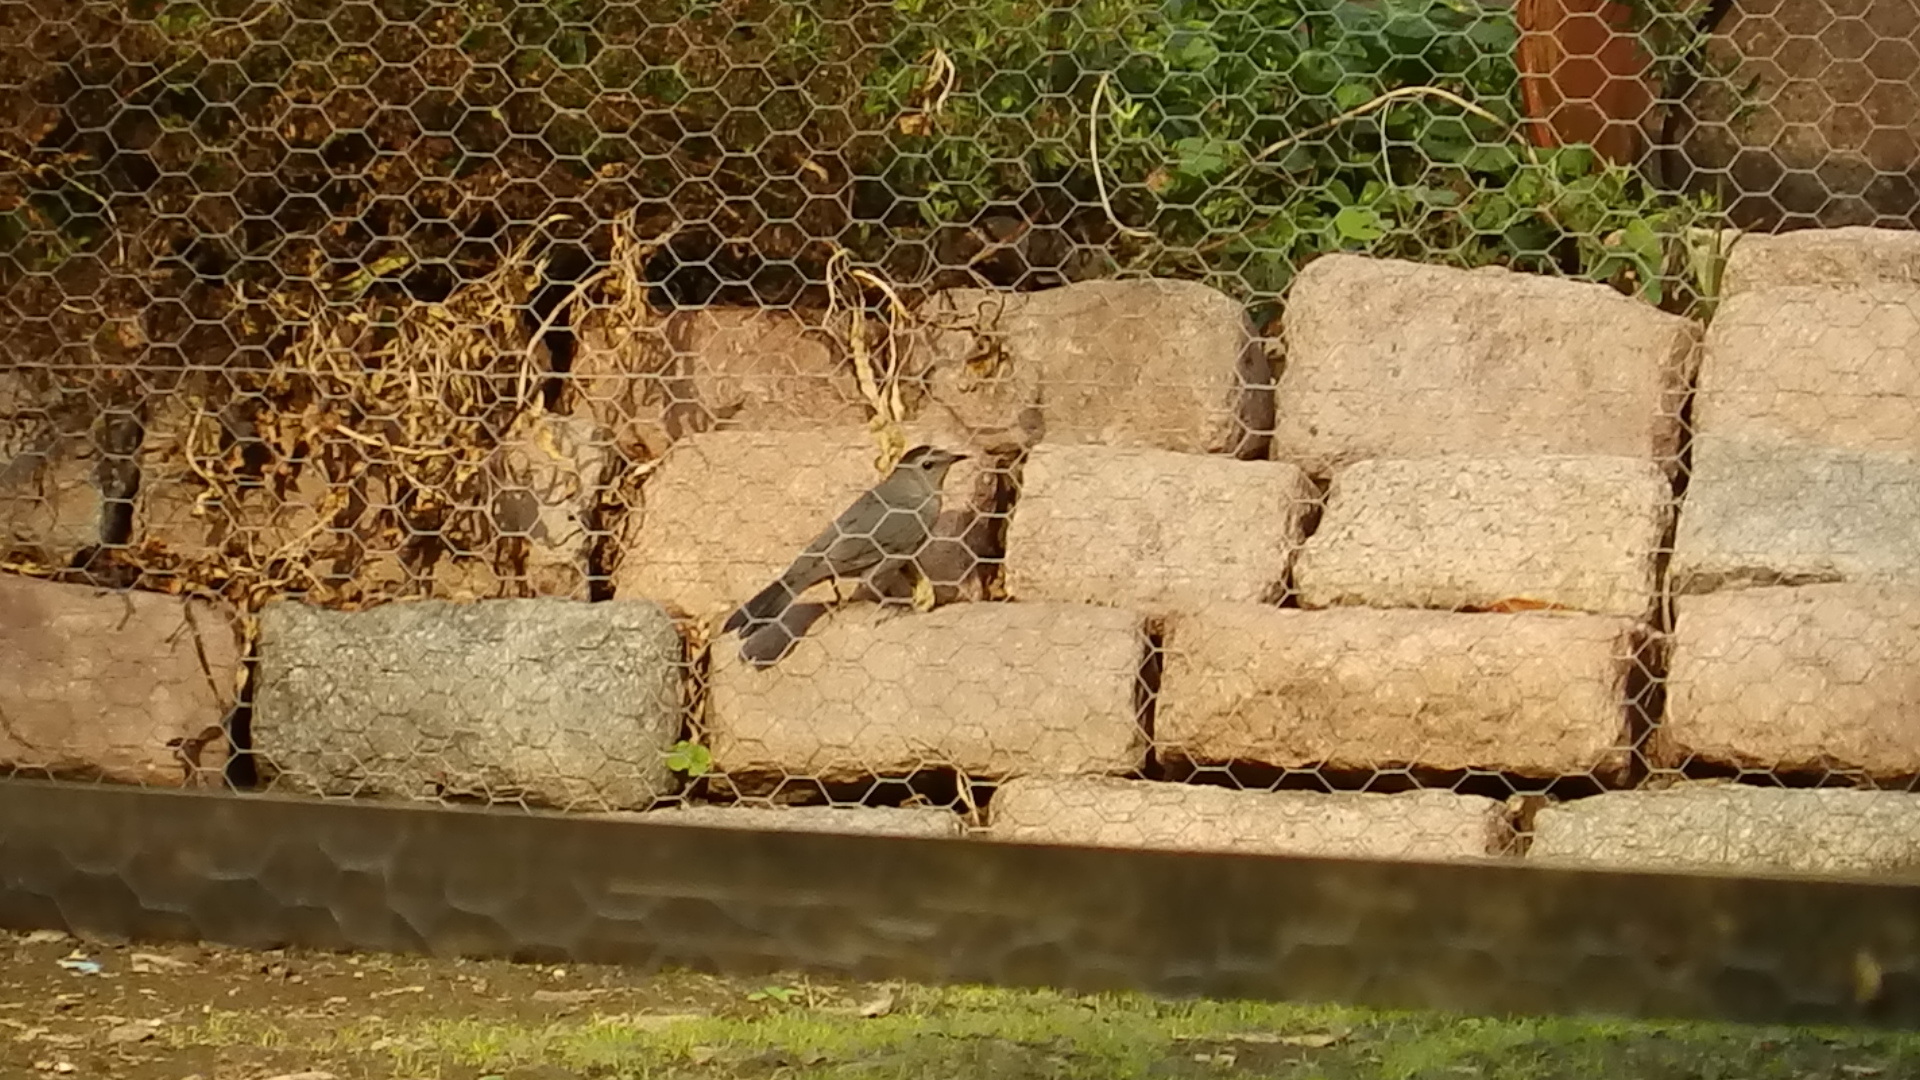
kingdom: Animalia
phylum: Chordata
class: Aves
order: Passeriformes
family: Mimidae
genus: Dumetella
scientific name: Dumetella carolinensis
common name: Gray catbird
